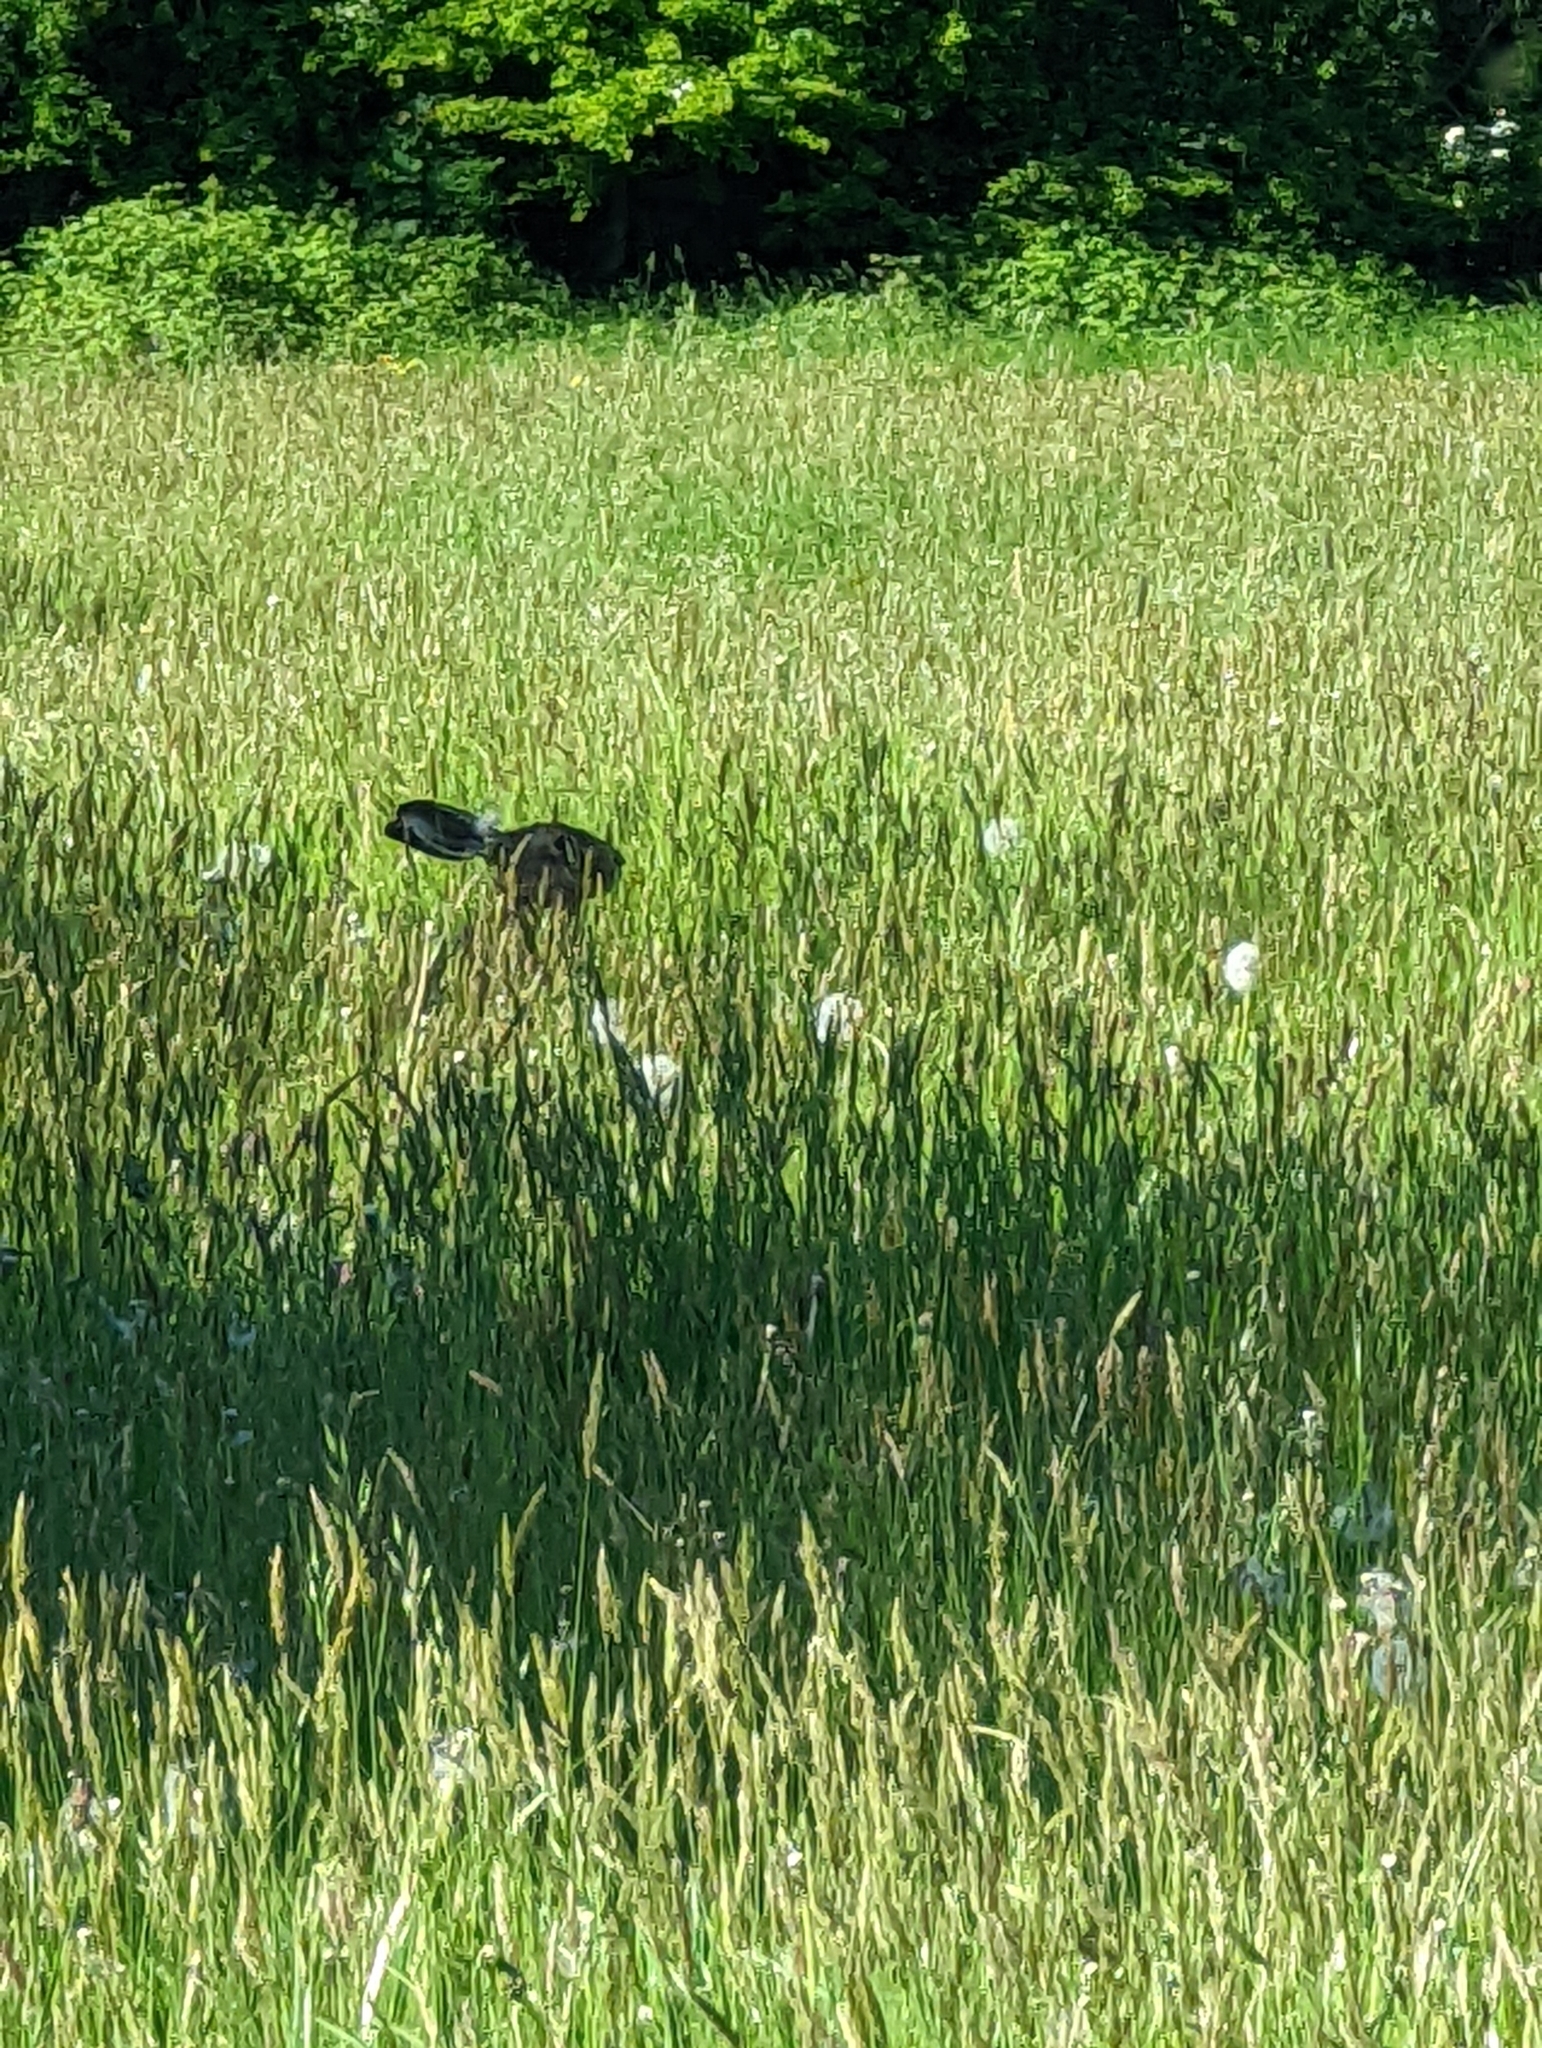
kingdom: Animalia
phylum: Chordata
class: Mammalia
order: Lagomorpha
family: Leporidae
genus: Lepus
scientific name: Lepus europaeus
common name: European hare
